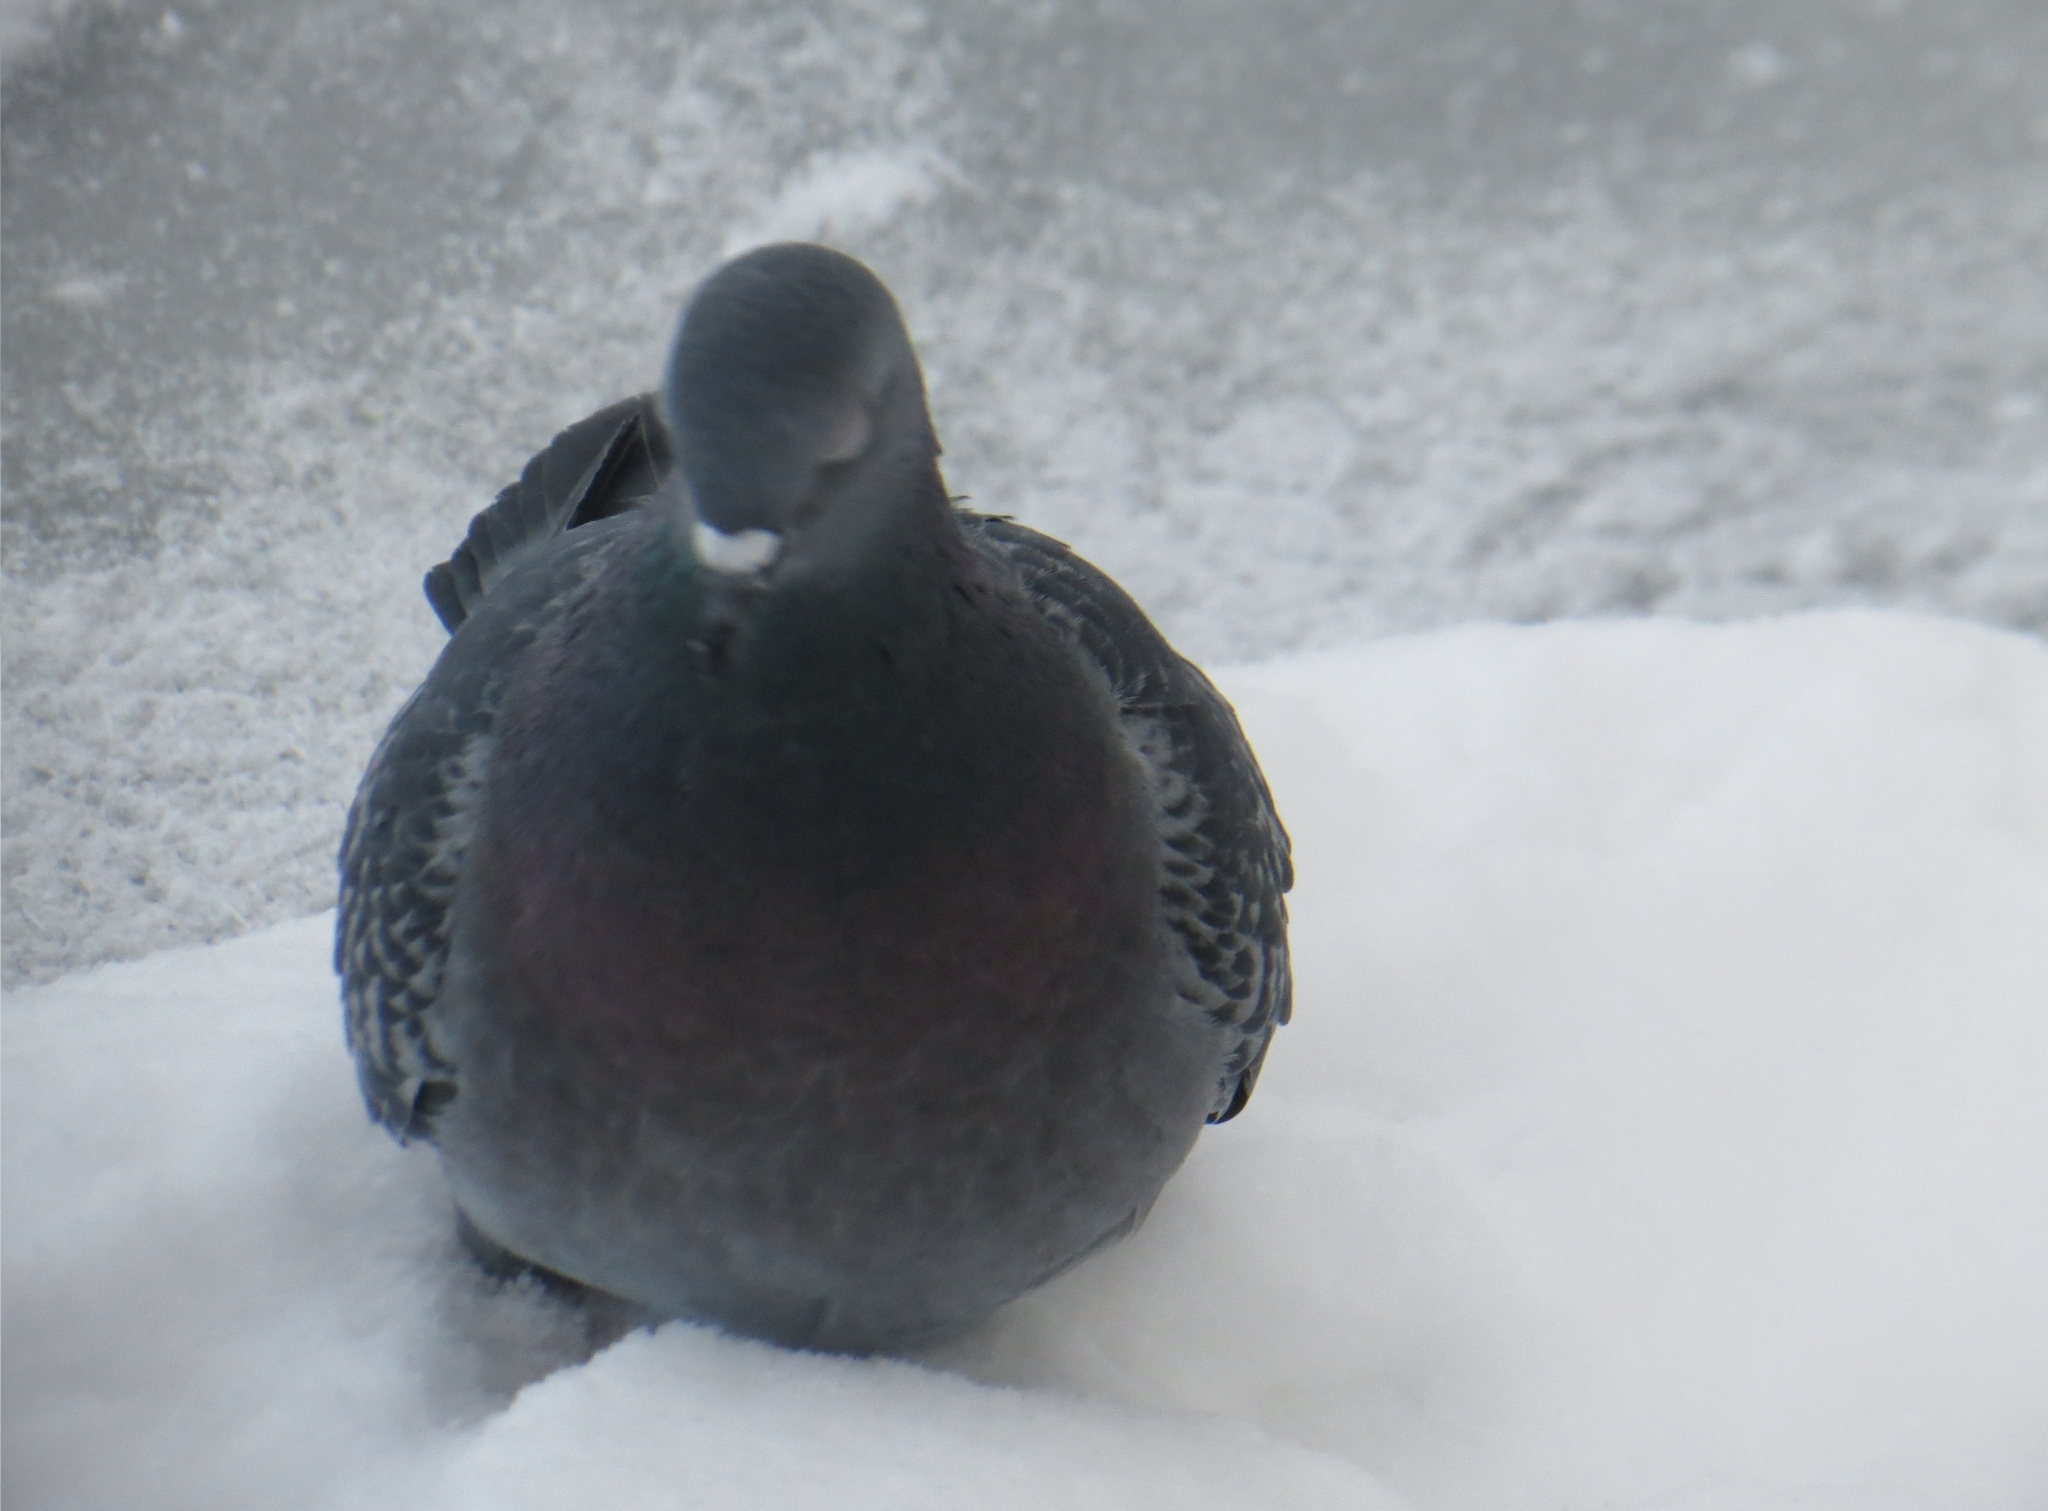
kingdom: Animalia
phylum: Chordata
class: Aves
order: Columbiformes
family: Columbidae
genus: Columba
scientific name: Columba livia
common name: Rock pigeon
